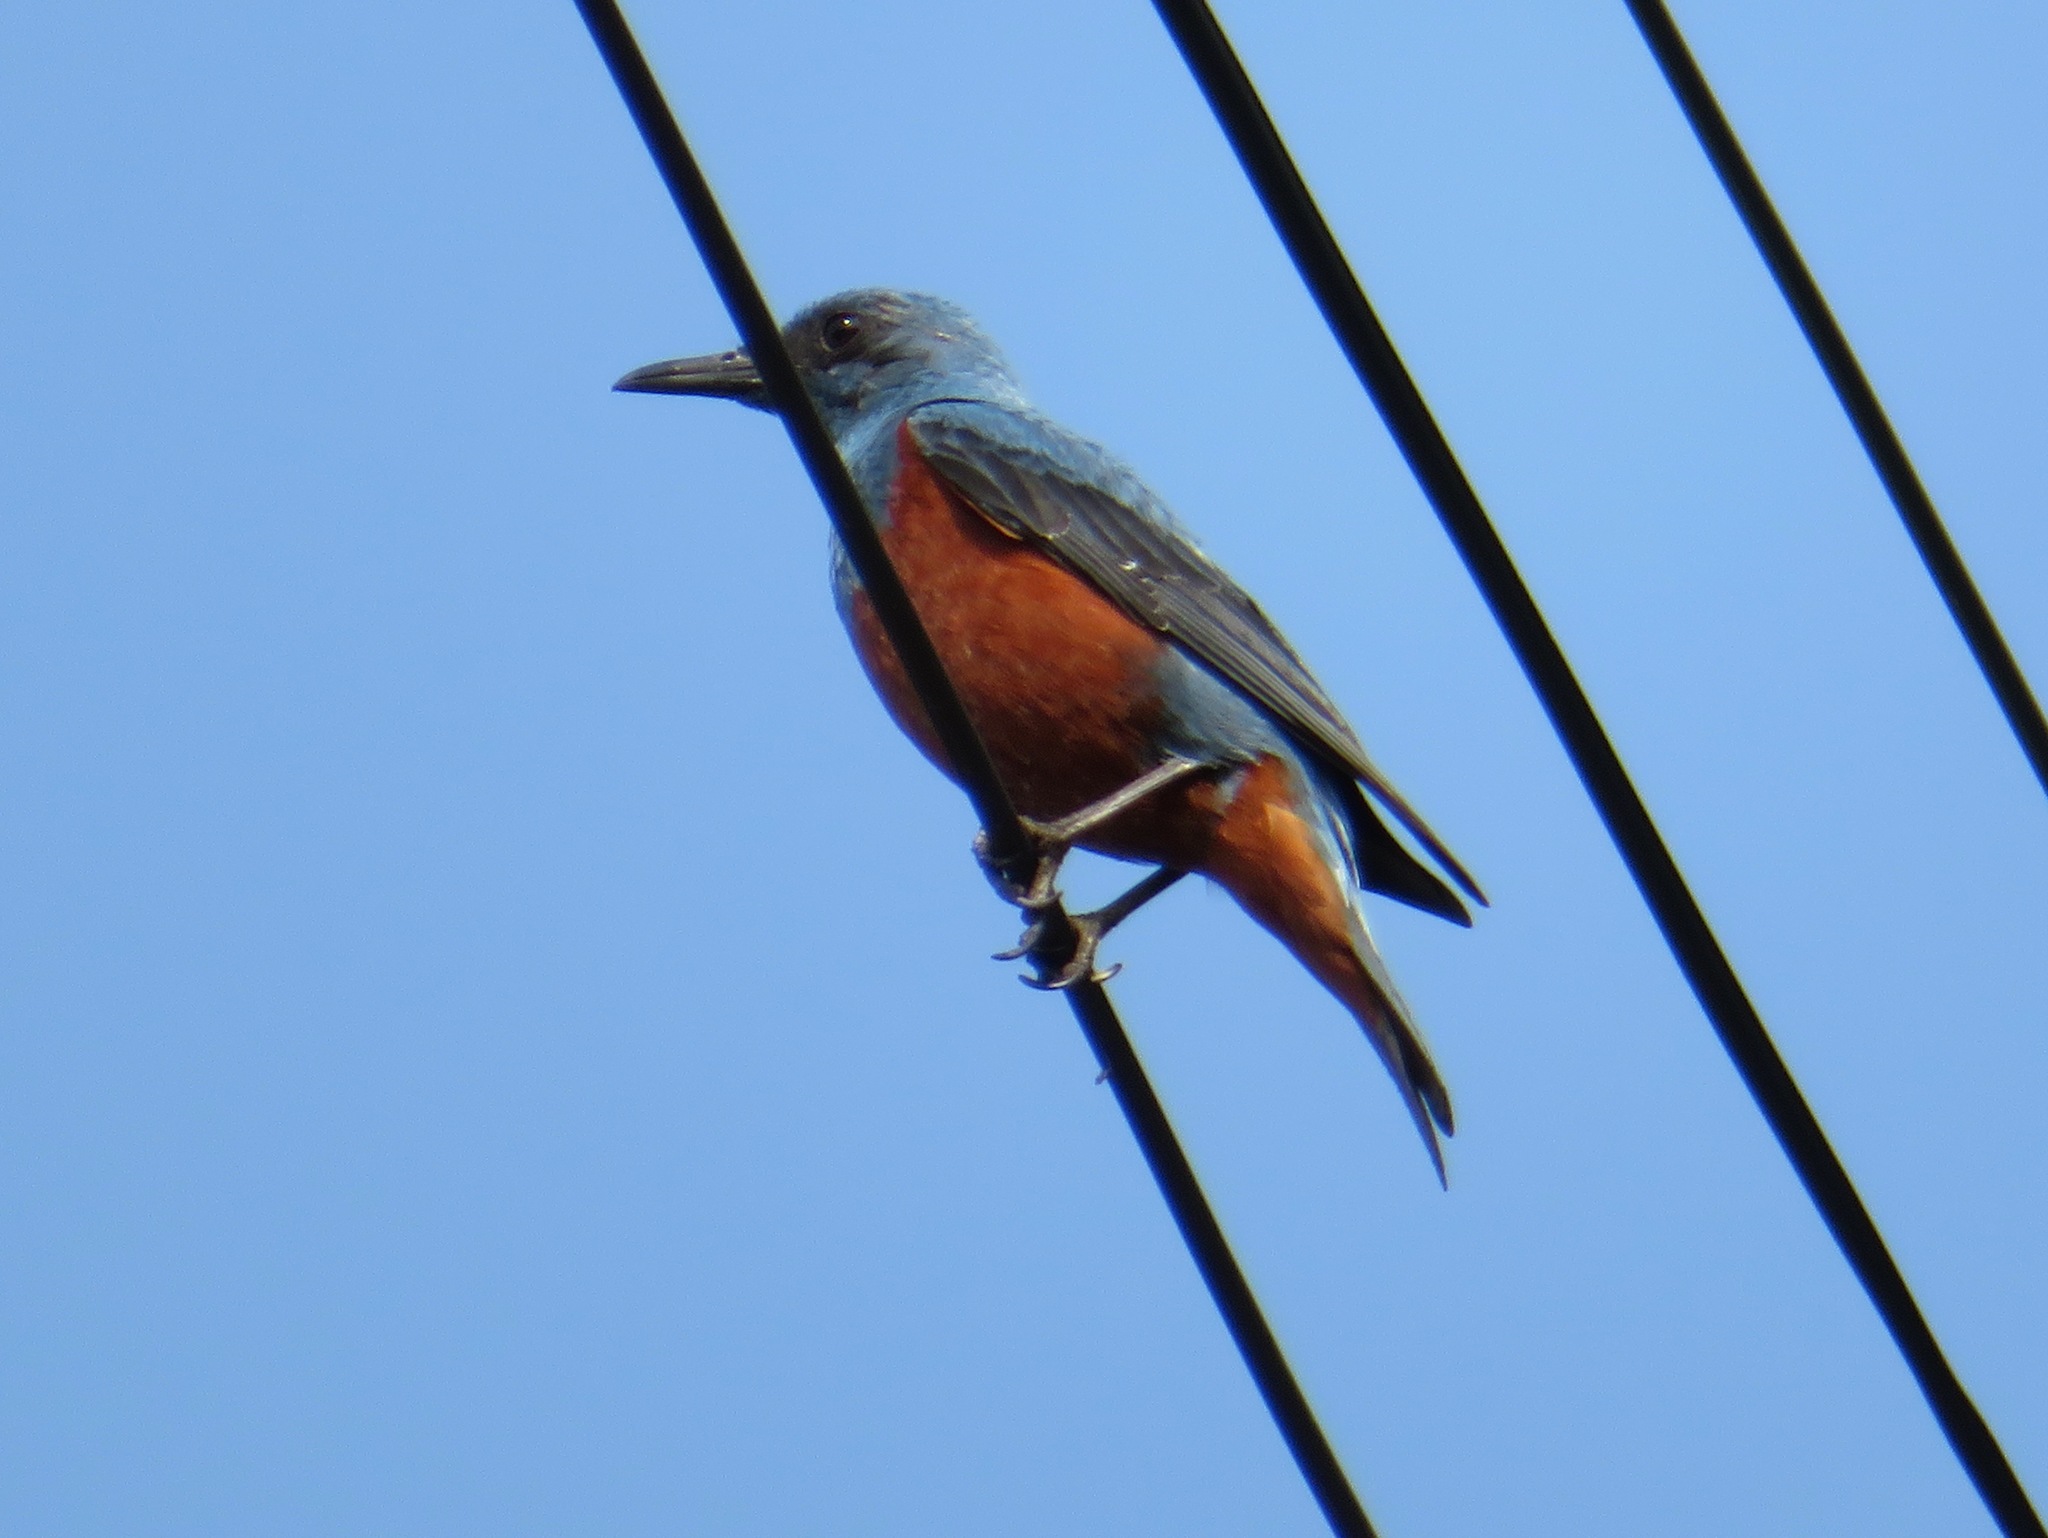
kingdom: Animalia
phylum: Chordata
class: Aves
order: Passeriformes
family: Muscicapidae
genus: Monticola
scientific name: Monticola solitarius
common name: Blue rock thrush
